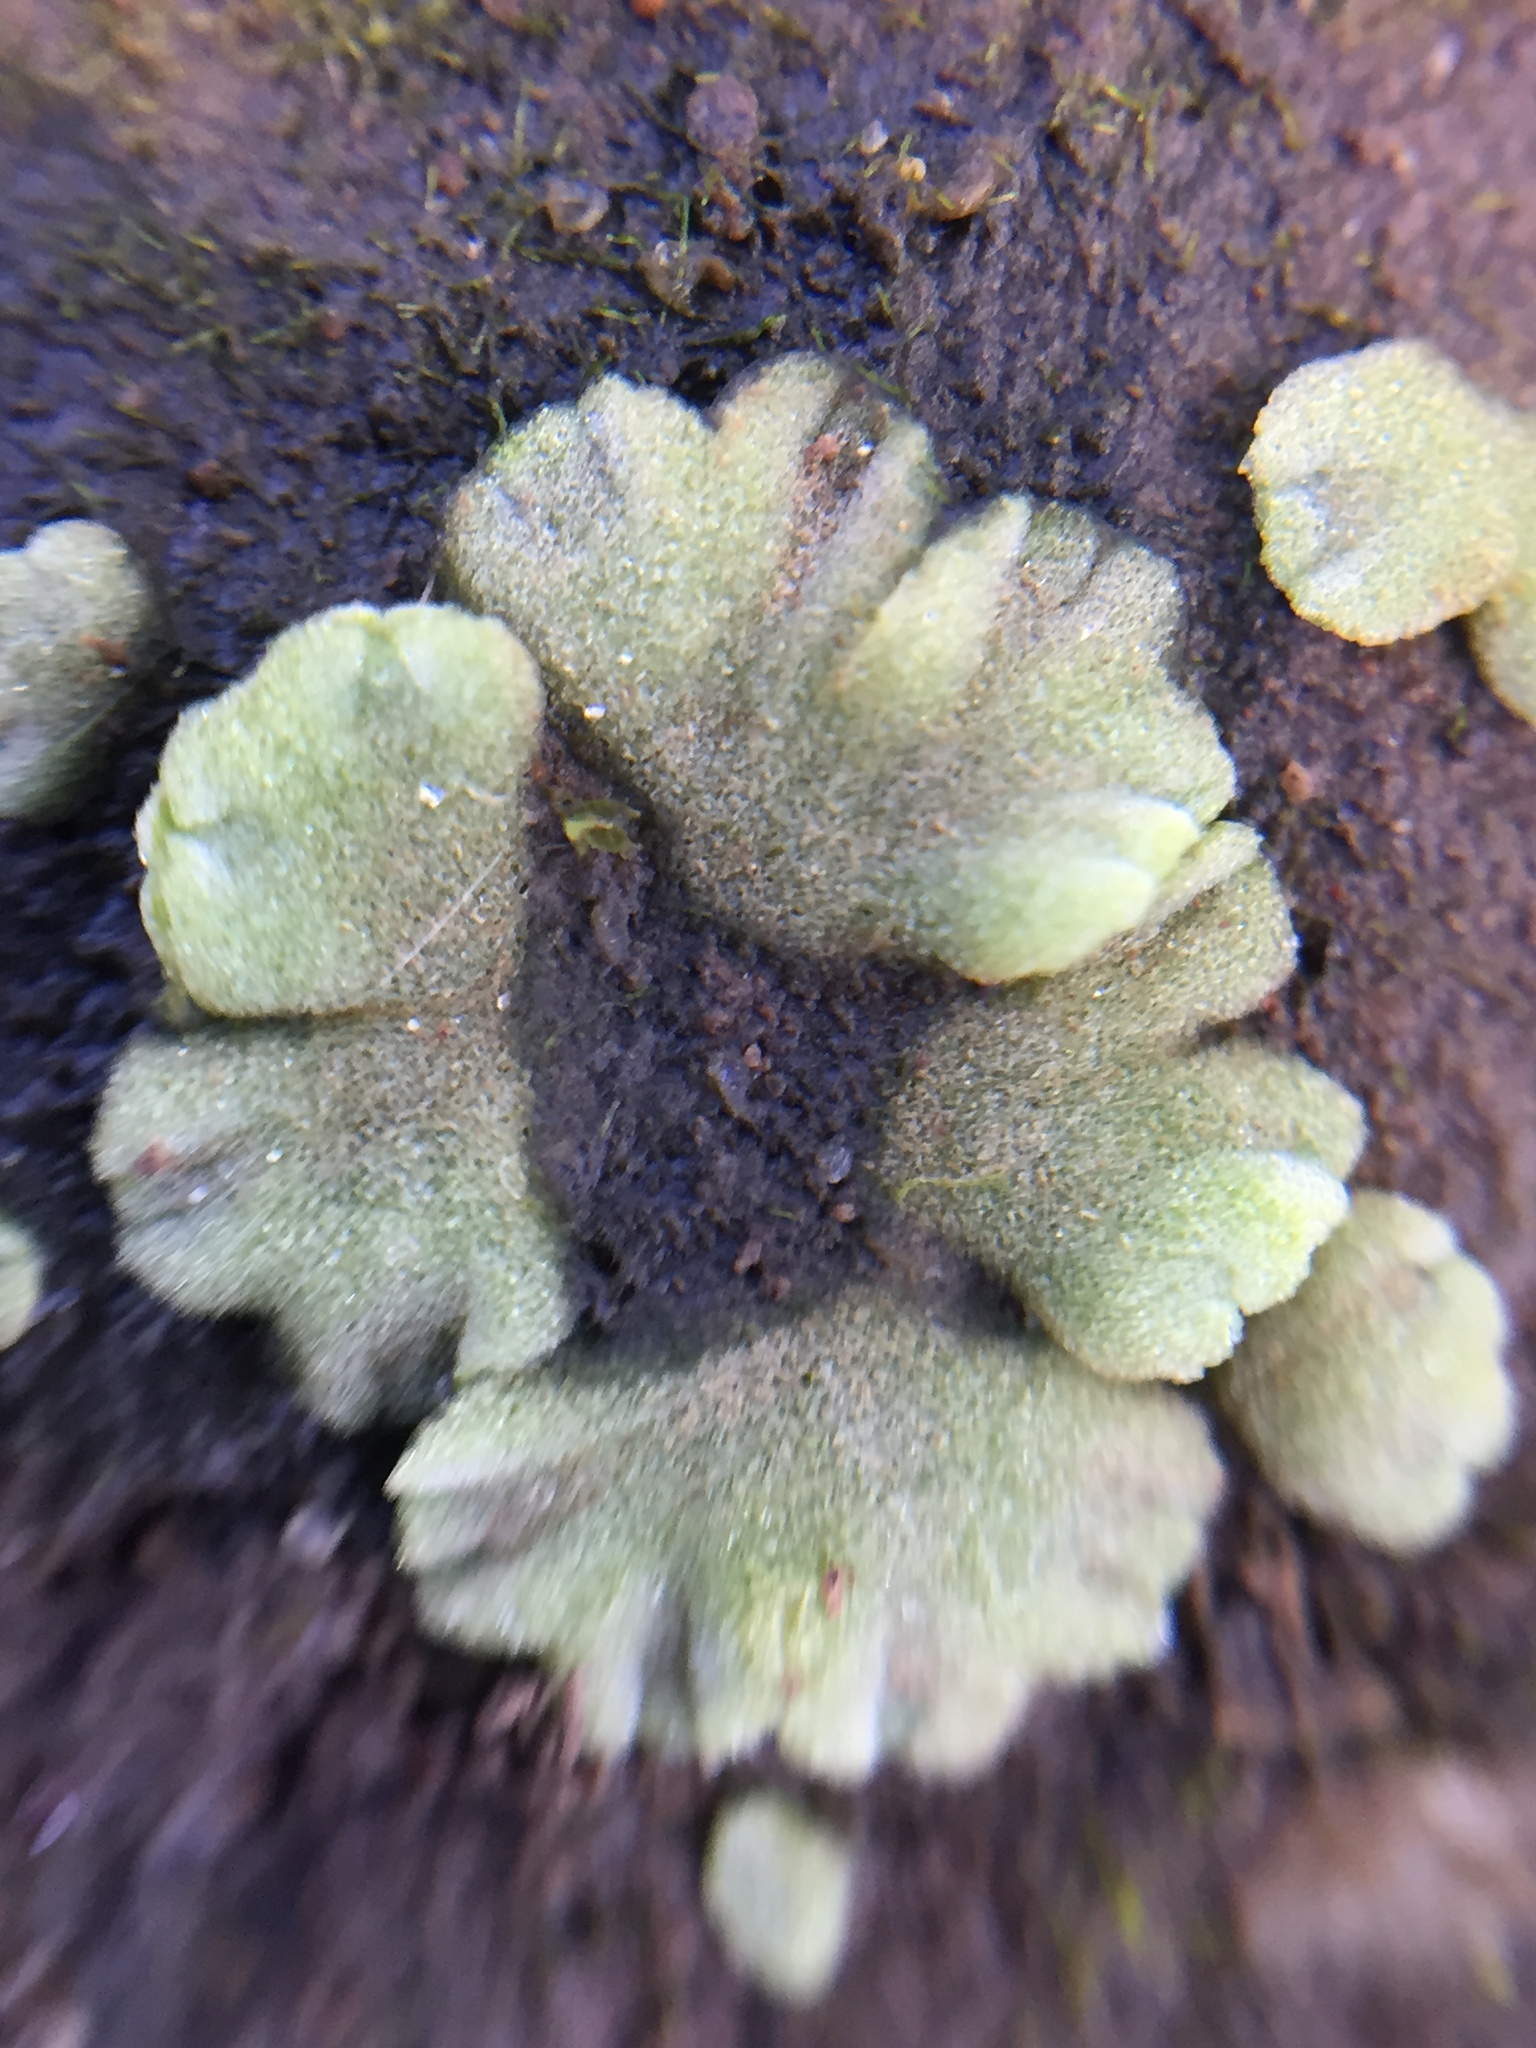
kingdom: Plantae
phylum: Marchantiophyta
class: Marchantiopsida
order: Marchantiales
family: Ricciaceae
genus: Riccia
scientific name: Riccia crystallina
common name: Blue crystalwort
